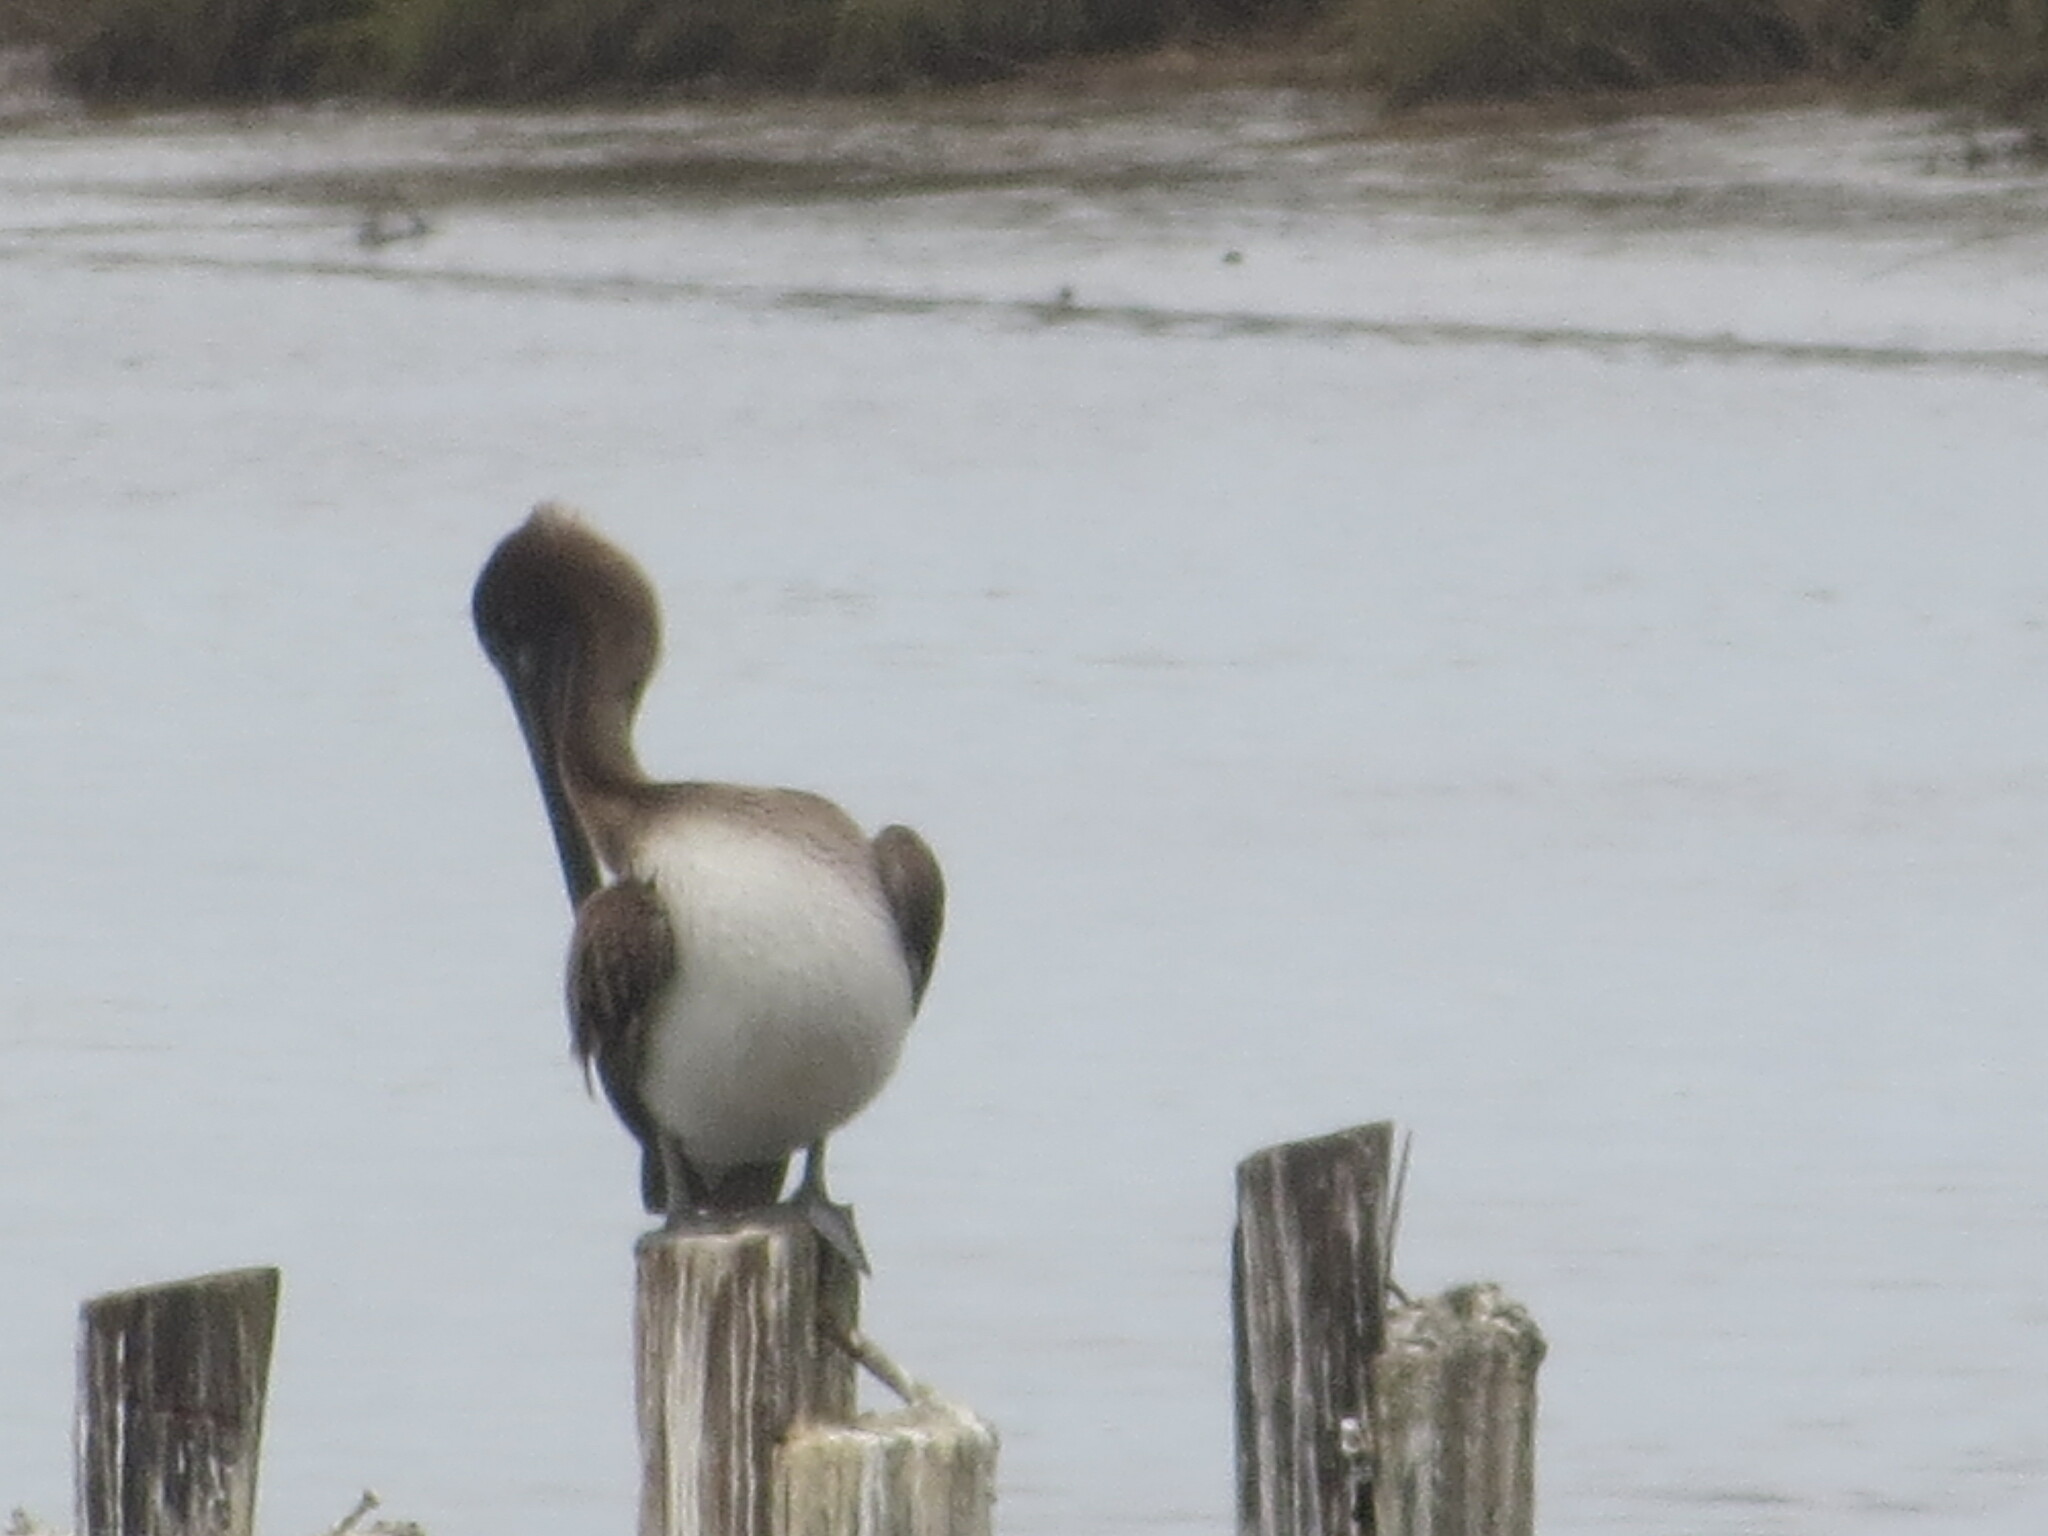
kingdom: Animalia
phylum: Chordata
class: Aves
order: Pelecaniformes
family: Pelecanidae
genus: Pelecanus
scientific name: Pelecanus occidentalis
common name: Brown pelican
